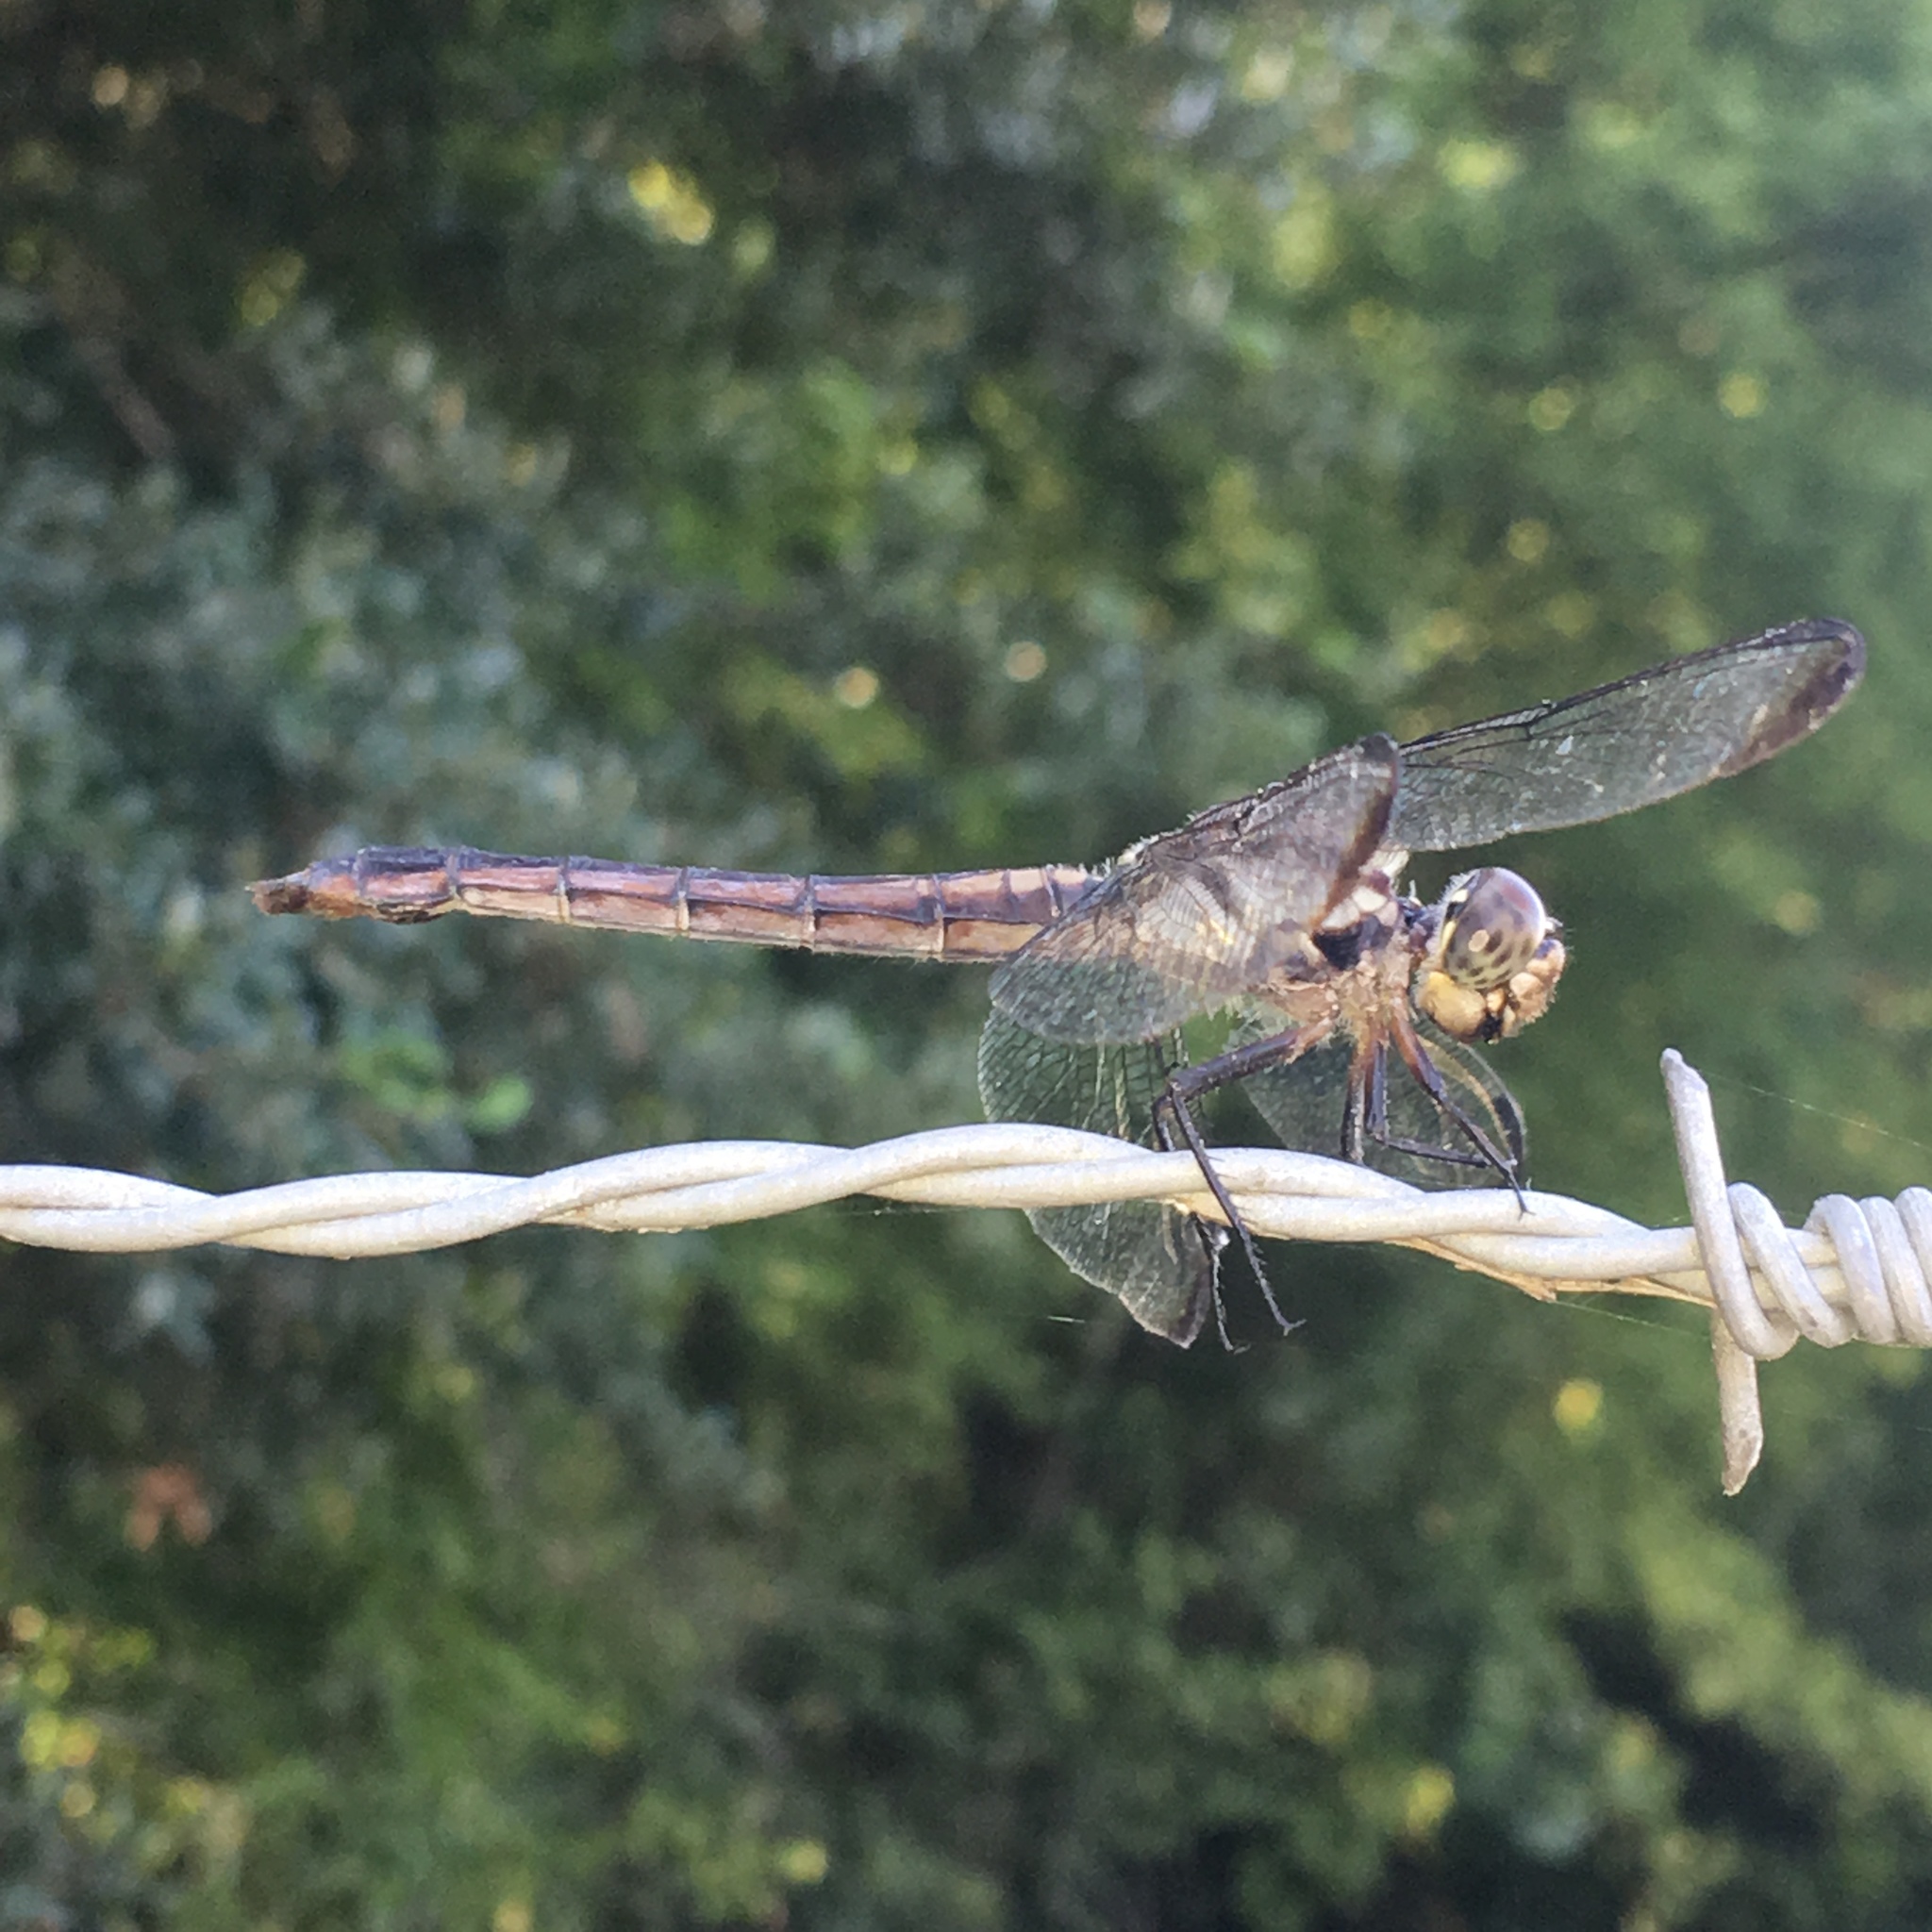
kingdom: Animalia
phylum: Arthropoda
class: Insecta
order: Odonata
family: Libellulidae
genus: Libellula
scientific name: Libellula incesta
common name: Slaty skimmer
